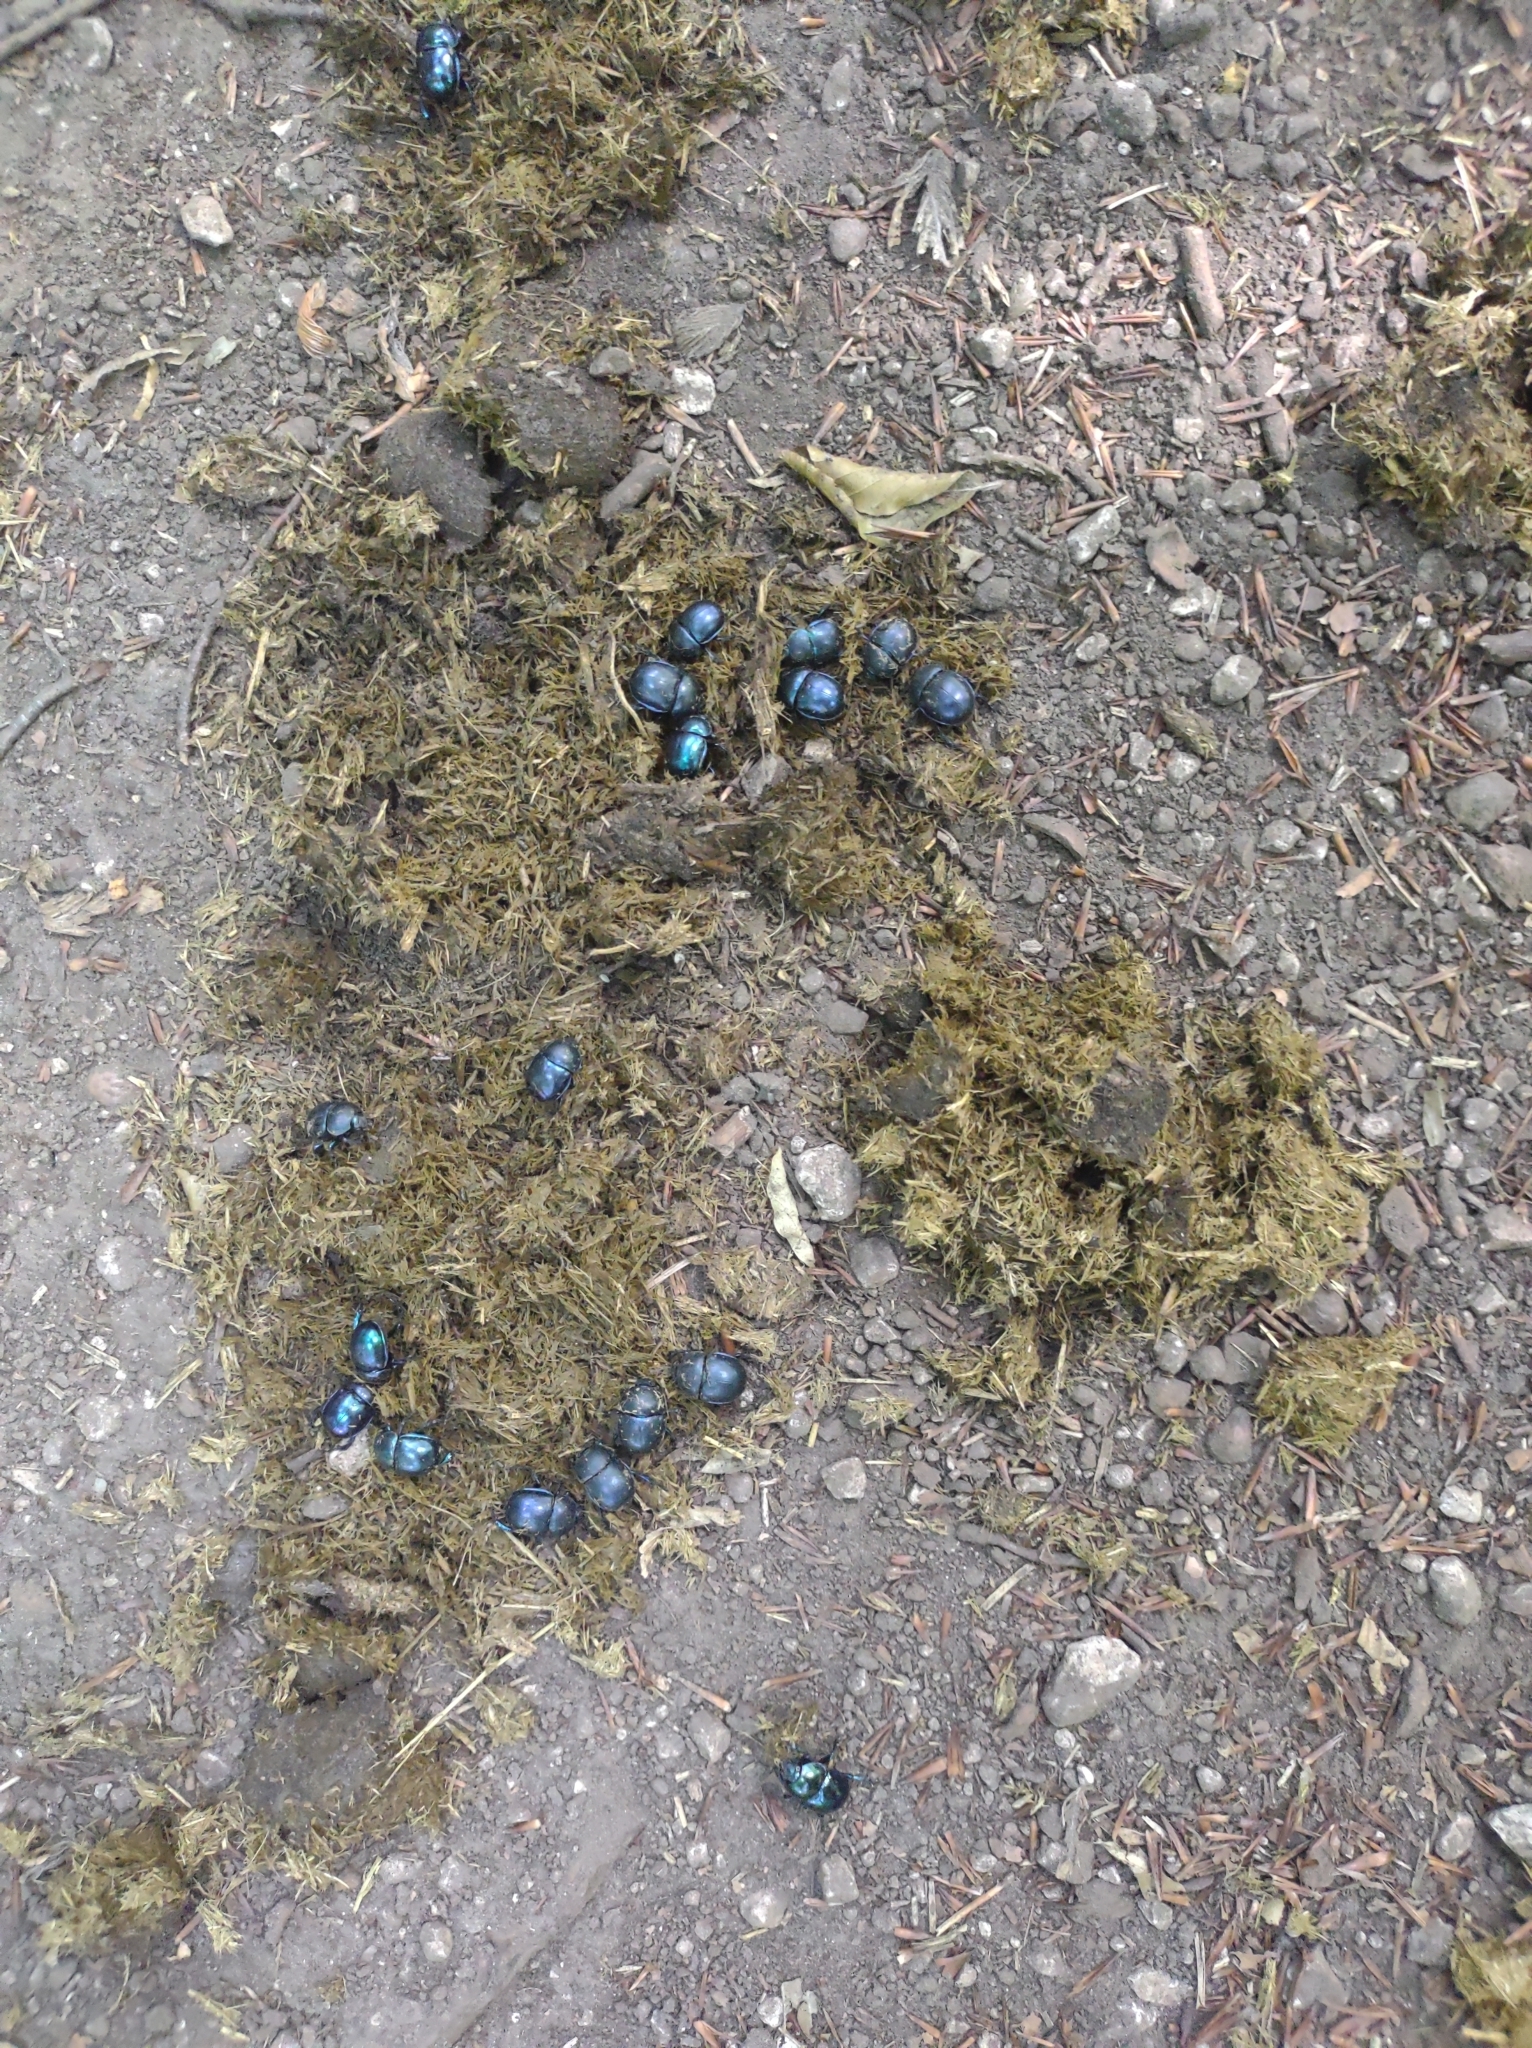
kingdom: Animalia
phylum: Arthropoda
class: Insecta
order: Coleoptera
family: Geotrupidae
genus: Trypocopris
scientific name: Trypocopris vernalis
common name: Spring dumbledor
